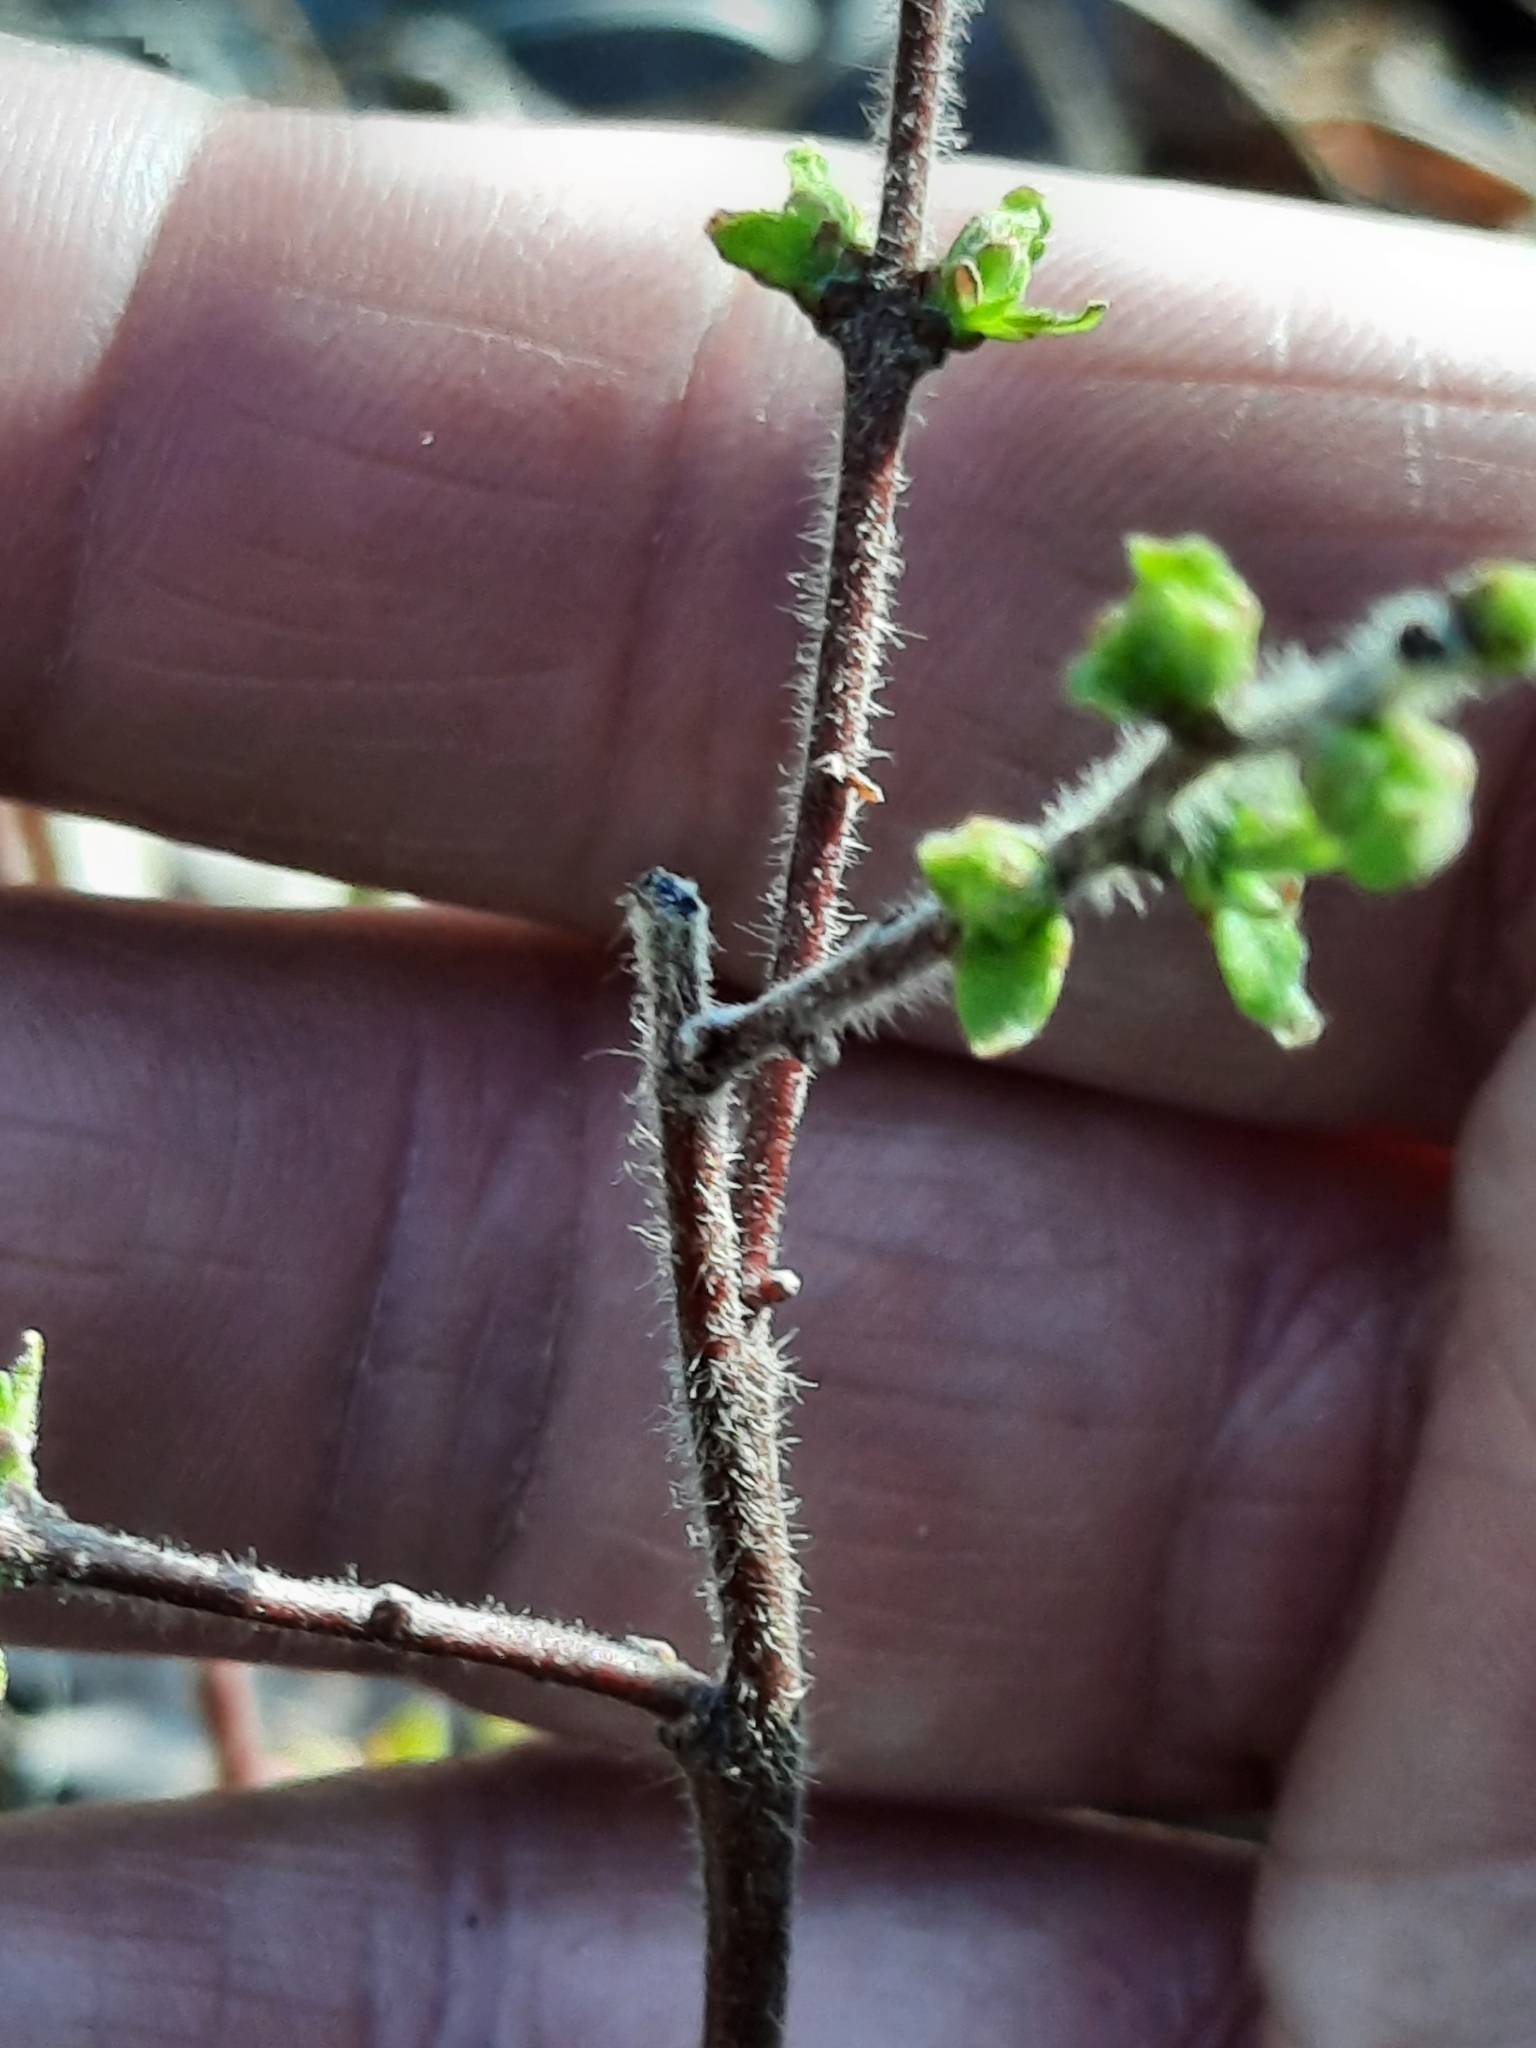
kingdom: Plantae
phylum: Tracheophyta
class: Magnoliopsida
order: Fagales
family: Myricaceae
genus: Comptonia
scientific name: Comptonia peregrina
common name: Sweet-fern
